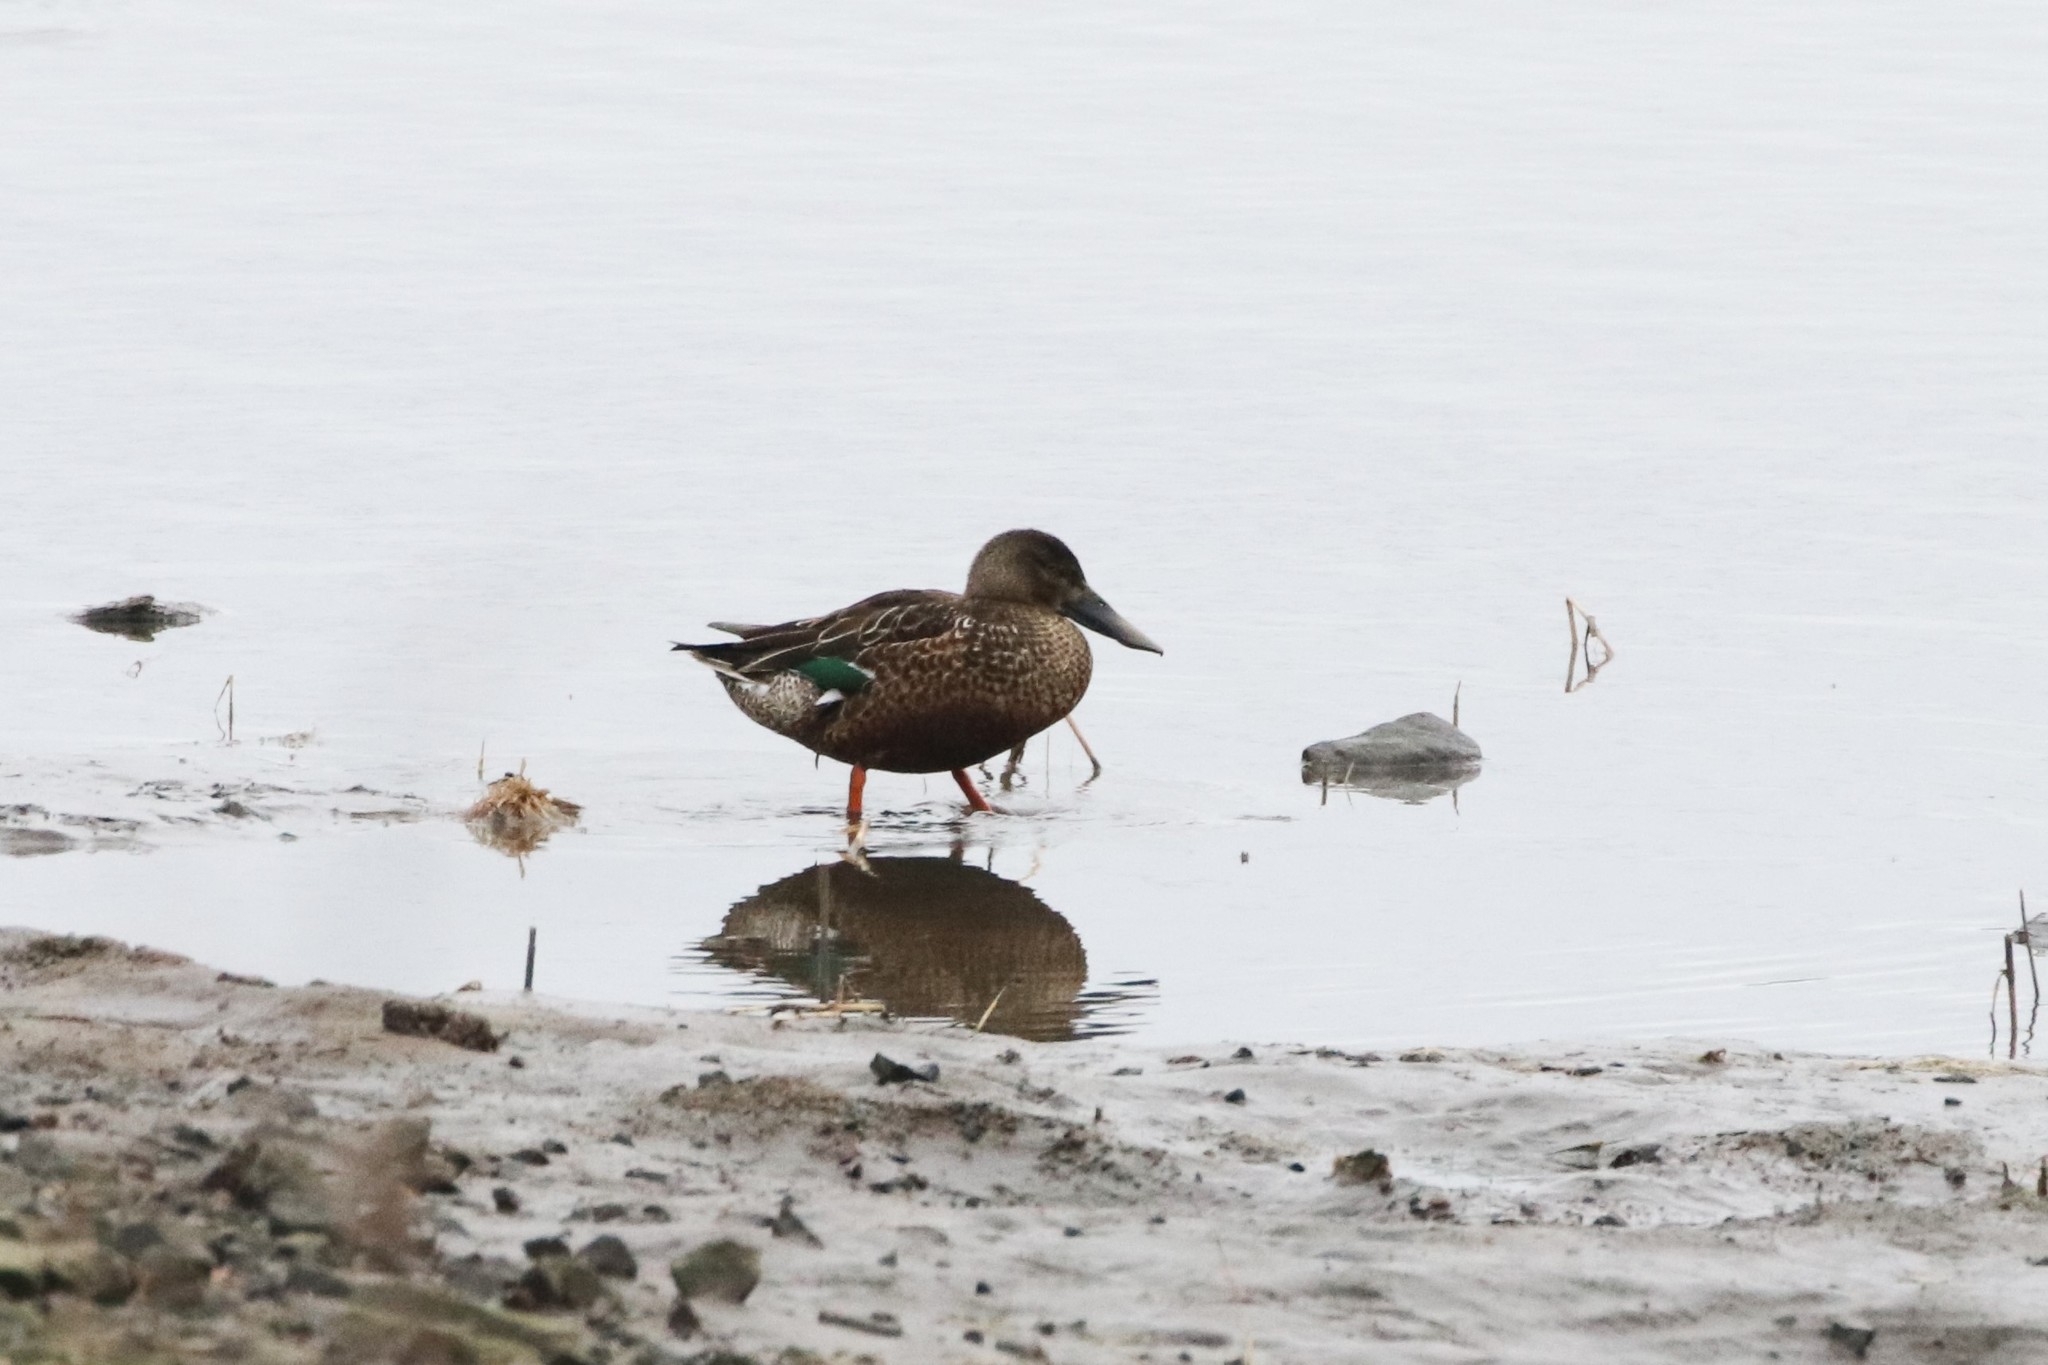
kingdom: Animalia
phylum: Chordata
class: Aves
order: Anseriformes
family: Anatidae
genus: Spatula
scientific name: Spatula clypeata
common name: Northern shoveler
